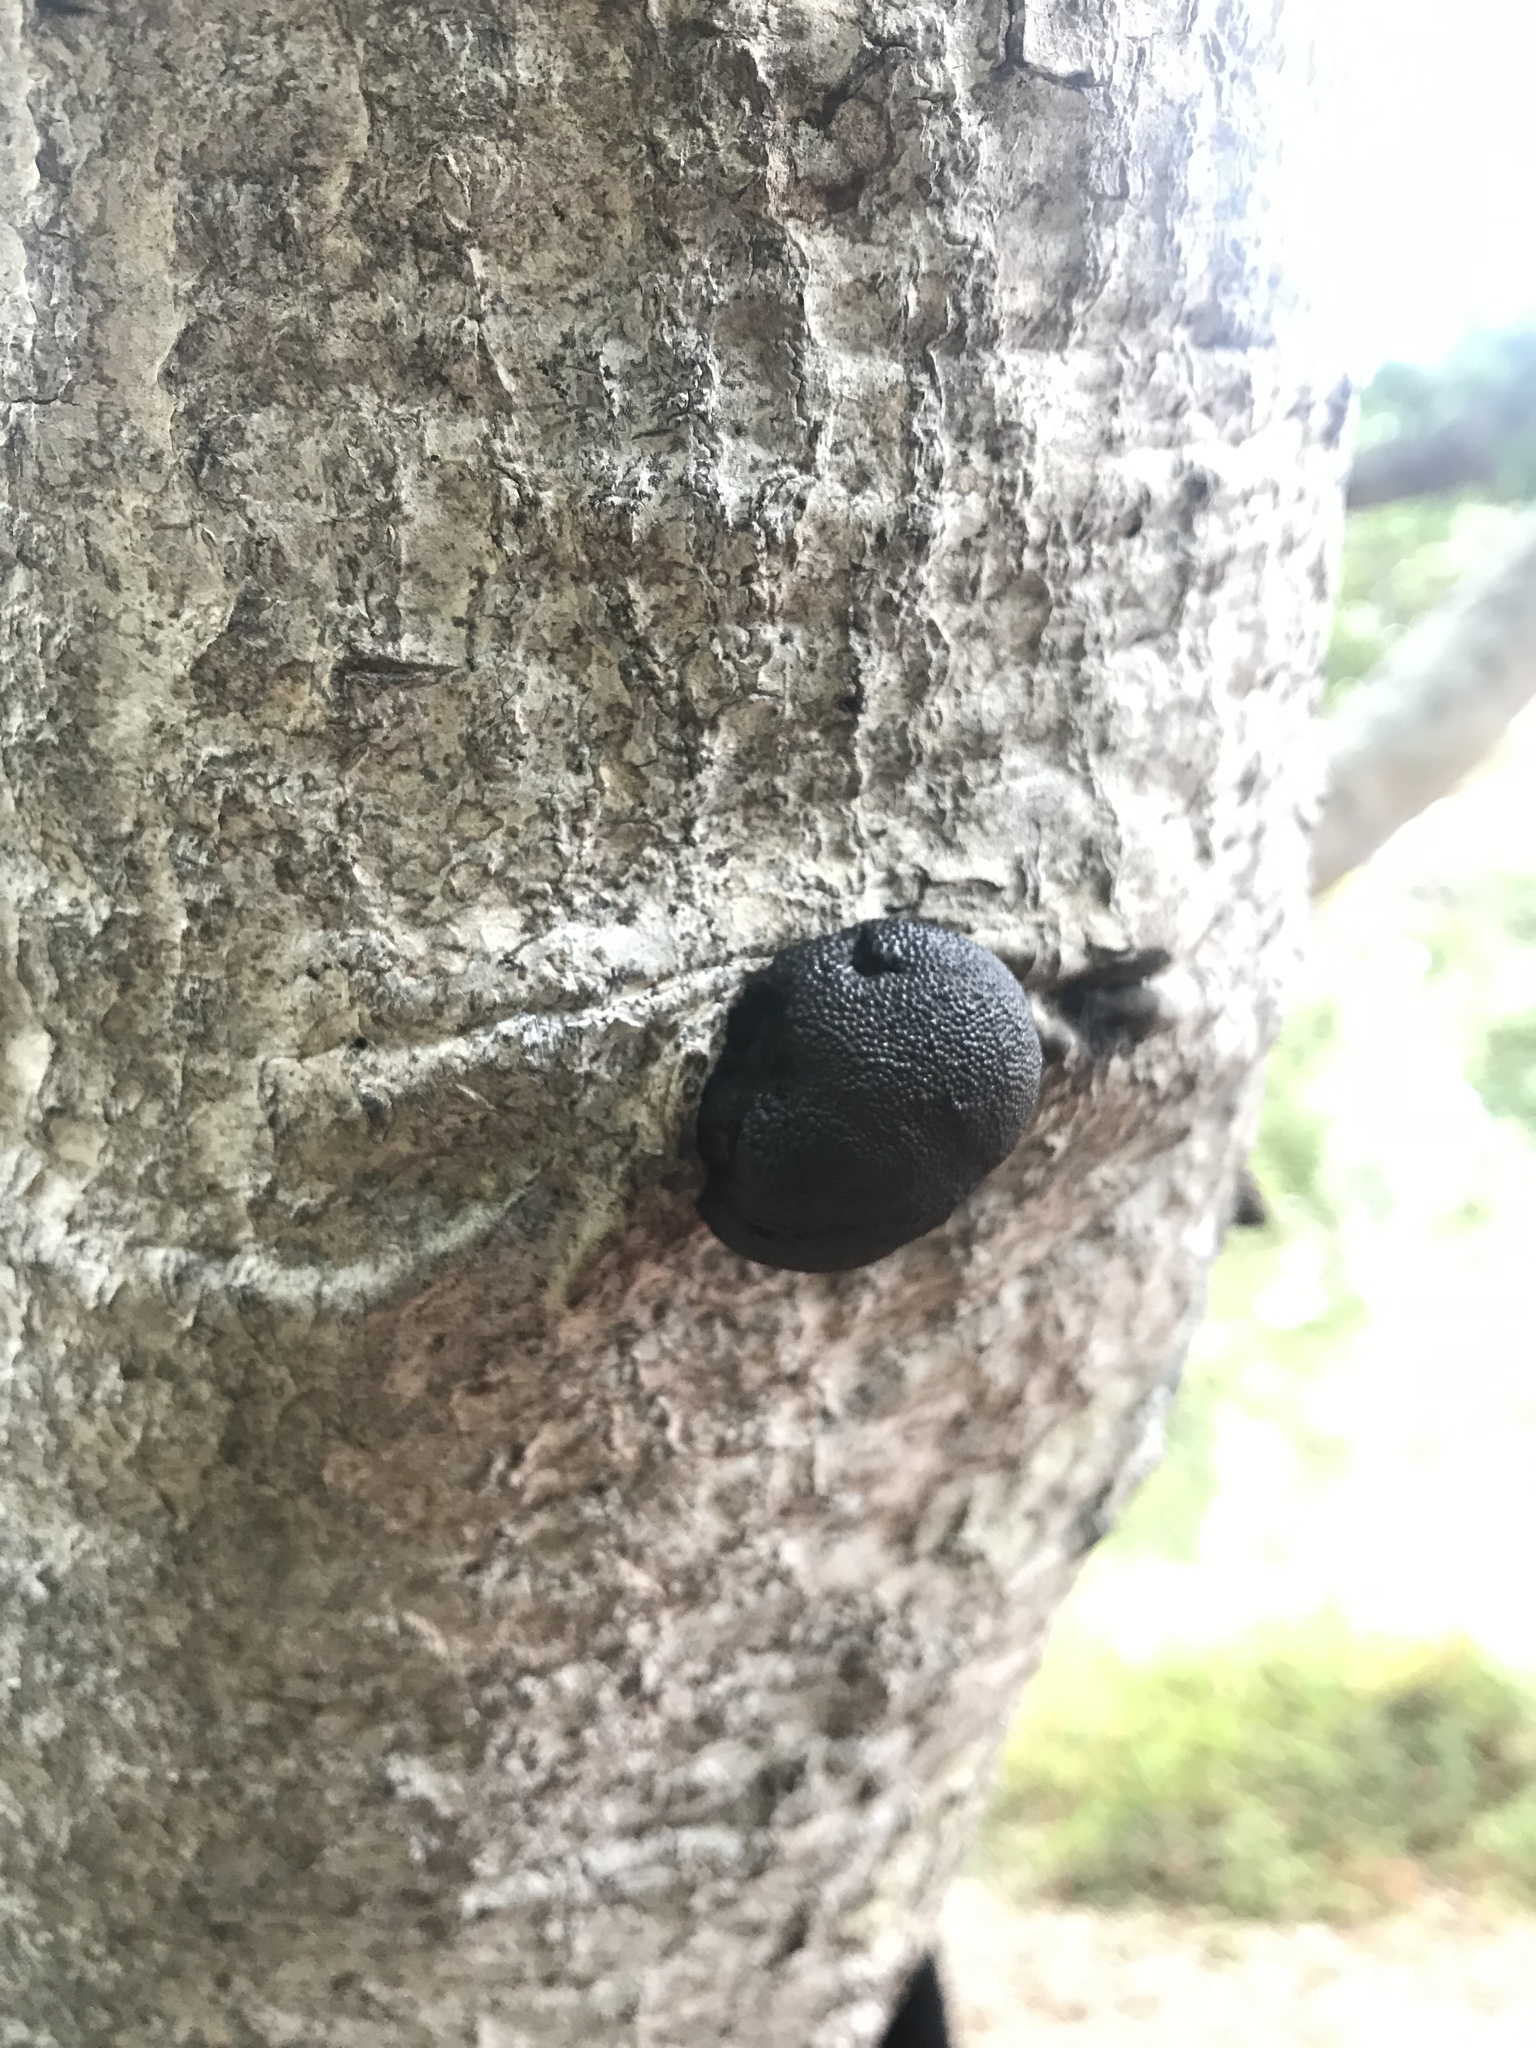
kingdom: Fungi
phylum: Ascomycota
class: Sordariomycetes
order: Xylariales
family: Hypoxylaceae
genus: Annulohypoxylon
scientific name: Annulohypoxylon thouarsianum
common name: Cramp balls
